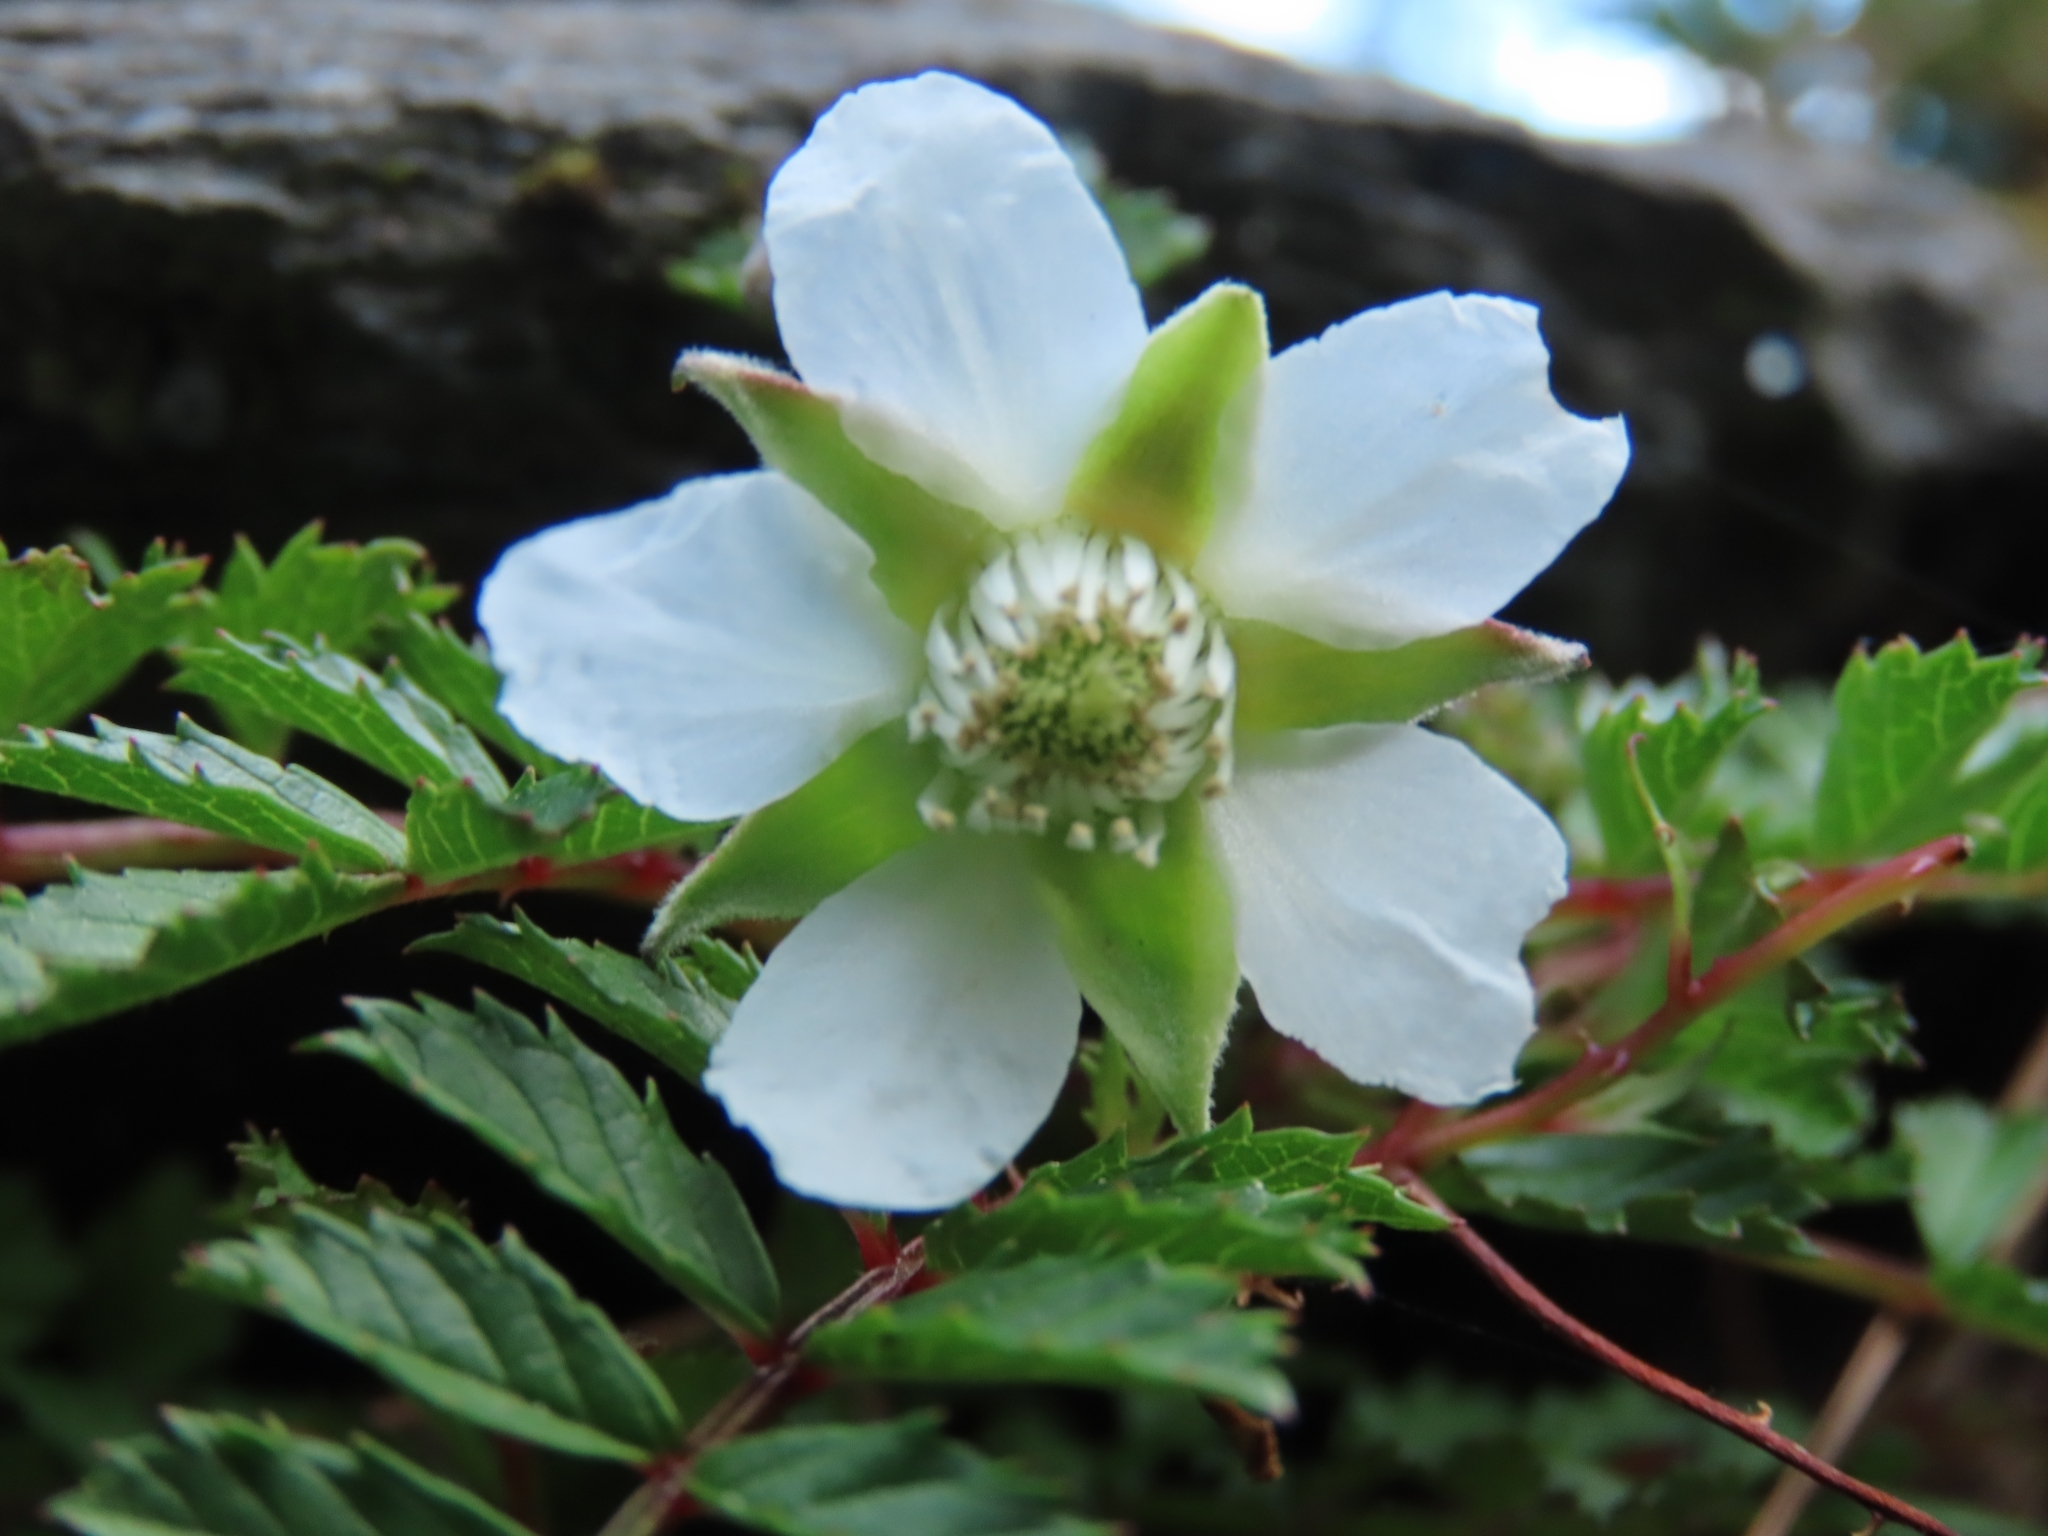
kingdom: Plantae
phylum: Tracheophyta
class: Magnoliopsida
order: Rosales
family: Rosaceae
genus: Rubus
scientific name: Rubus taiwanicola
